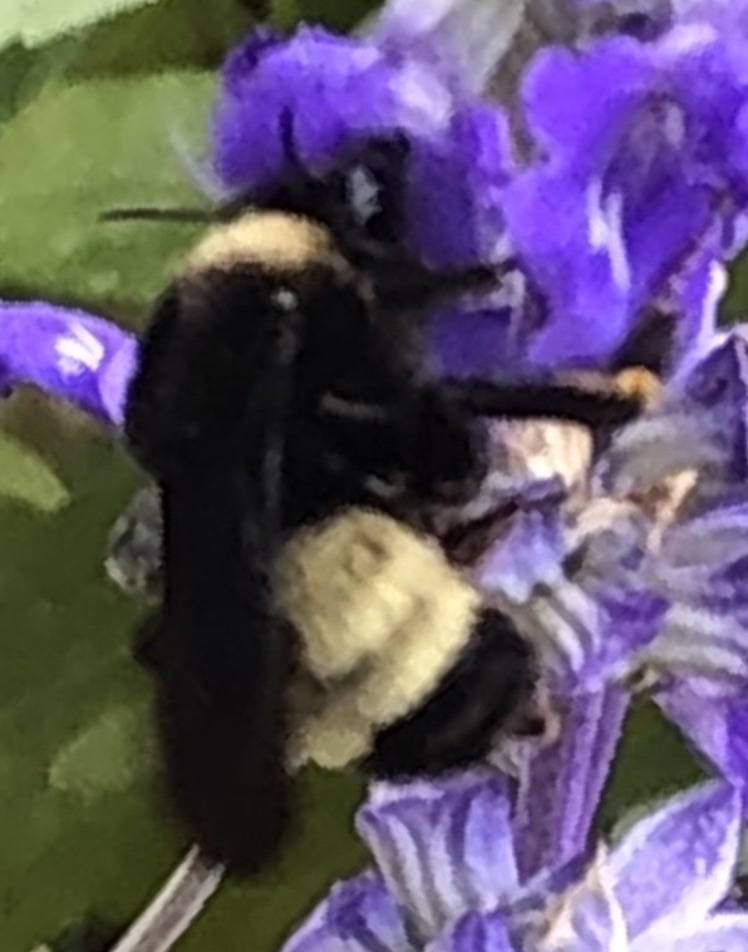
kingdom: Animalia
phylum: Arthropoda
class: Insecta
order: Hymenoptera
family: Apidae
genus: Bombus
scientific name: Bombus pensylvanicus
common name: Bumble bee
